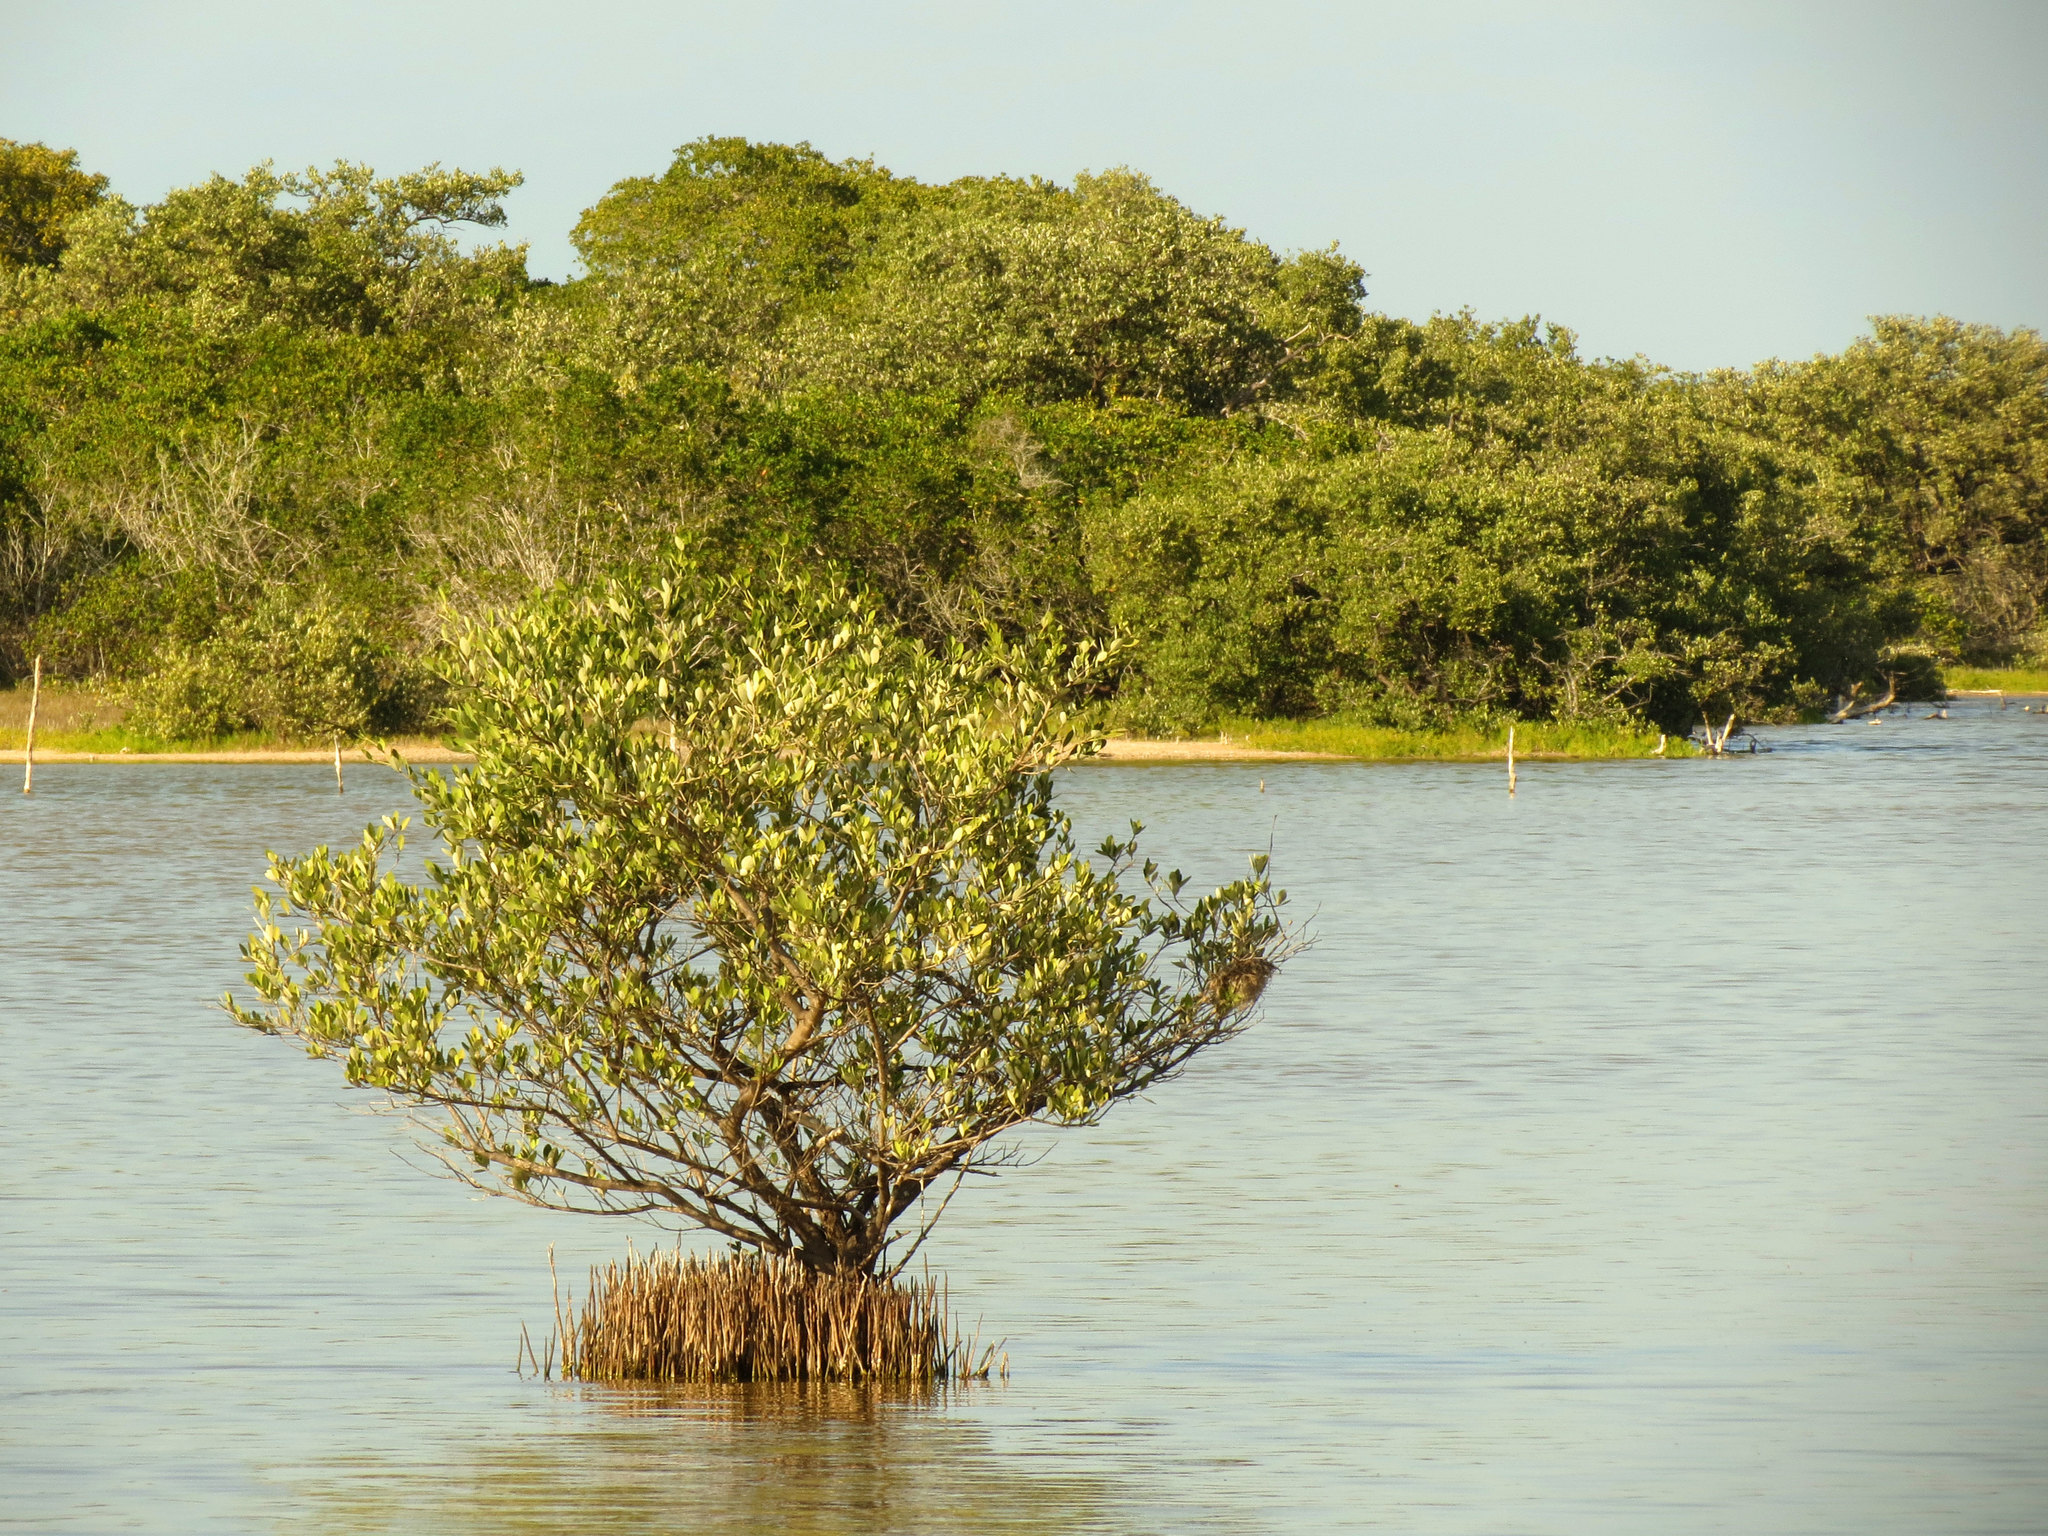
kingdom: Plantae
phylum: Tracheophyta
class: Magnoliopsida
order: Lamiales
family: Acanthaceae
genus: Avicennia
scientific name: Avicennia germinans
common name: Black mangrove
